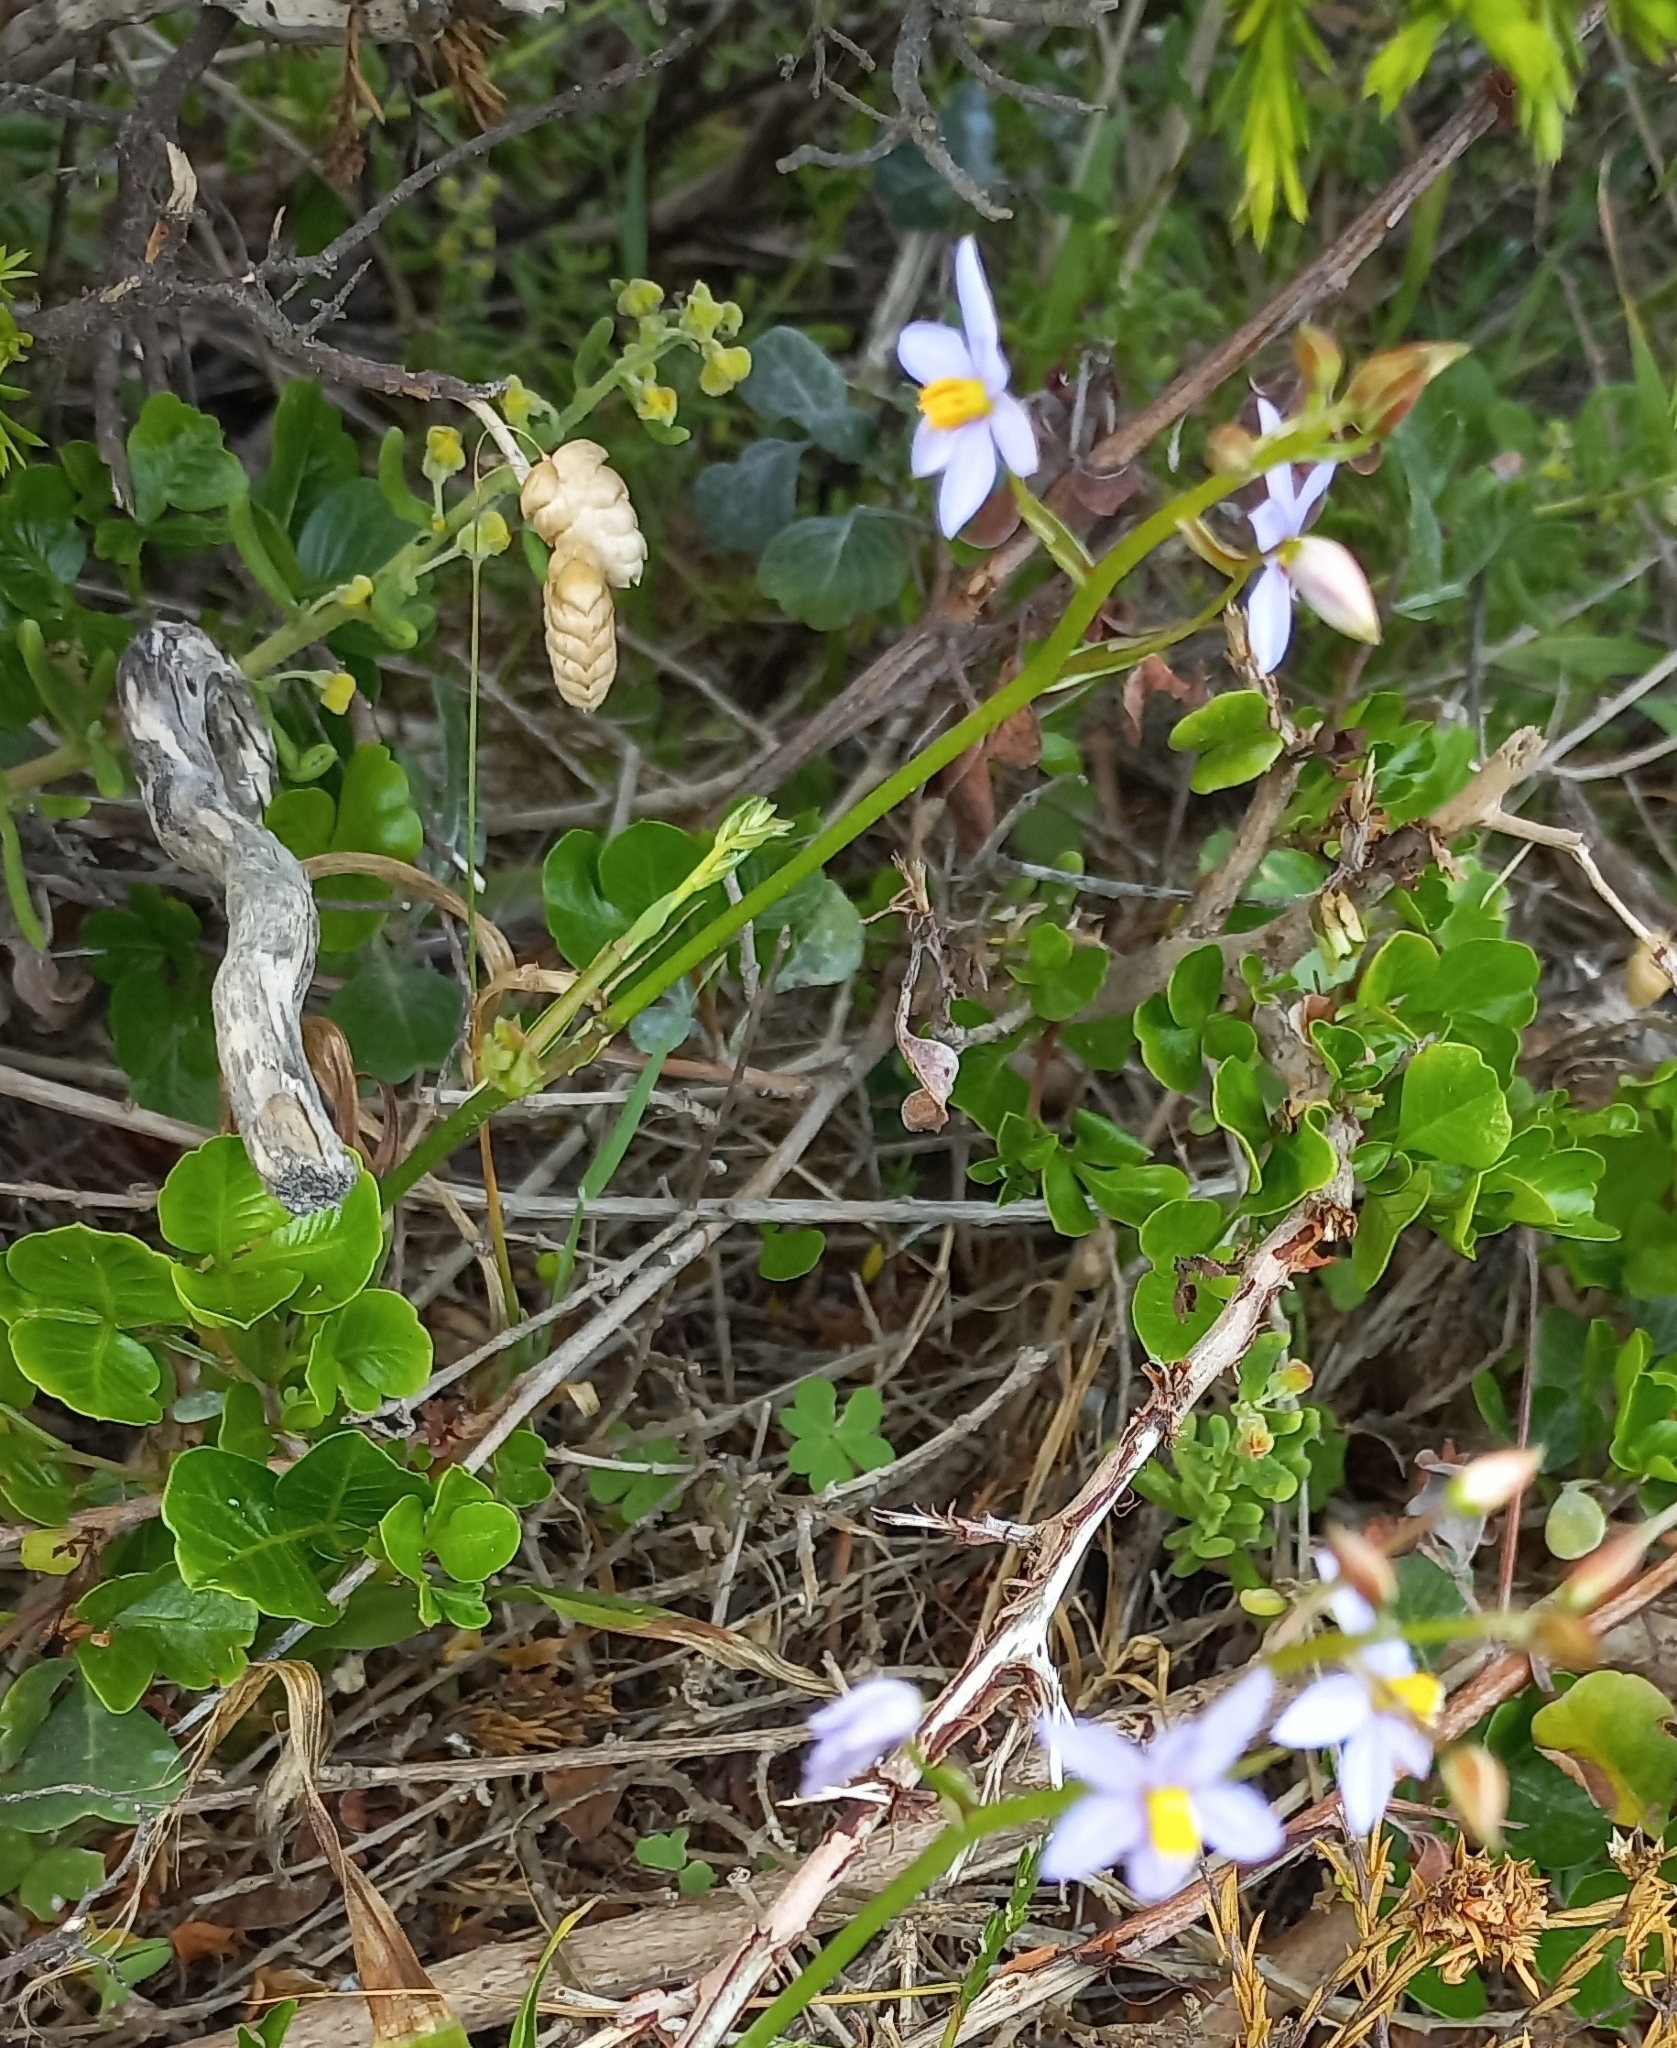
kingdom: Plantae
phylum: Tracheophyta
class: Liliopsida
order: Asparagales
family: Tecophilaeaceae
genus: Cyanella
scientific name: Cyanella hyacinthoides
